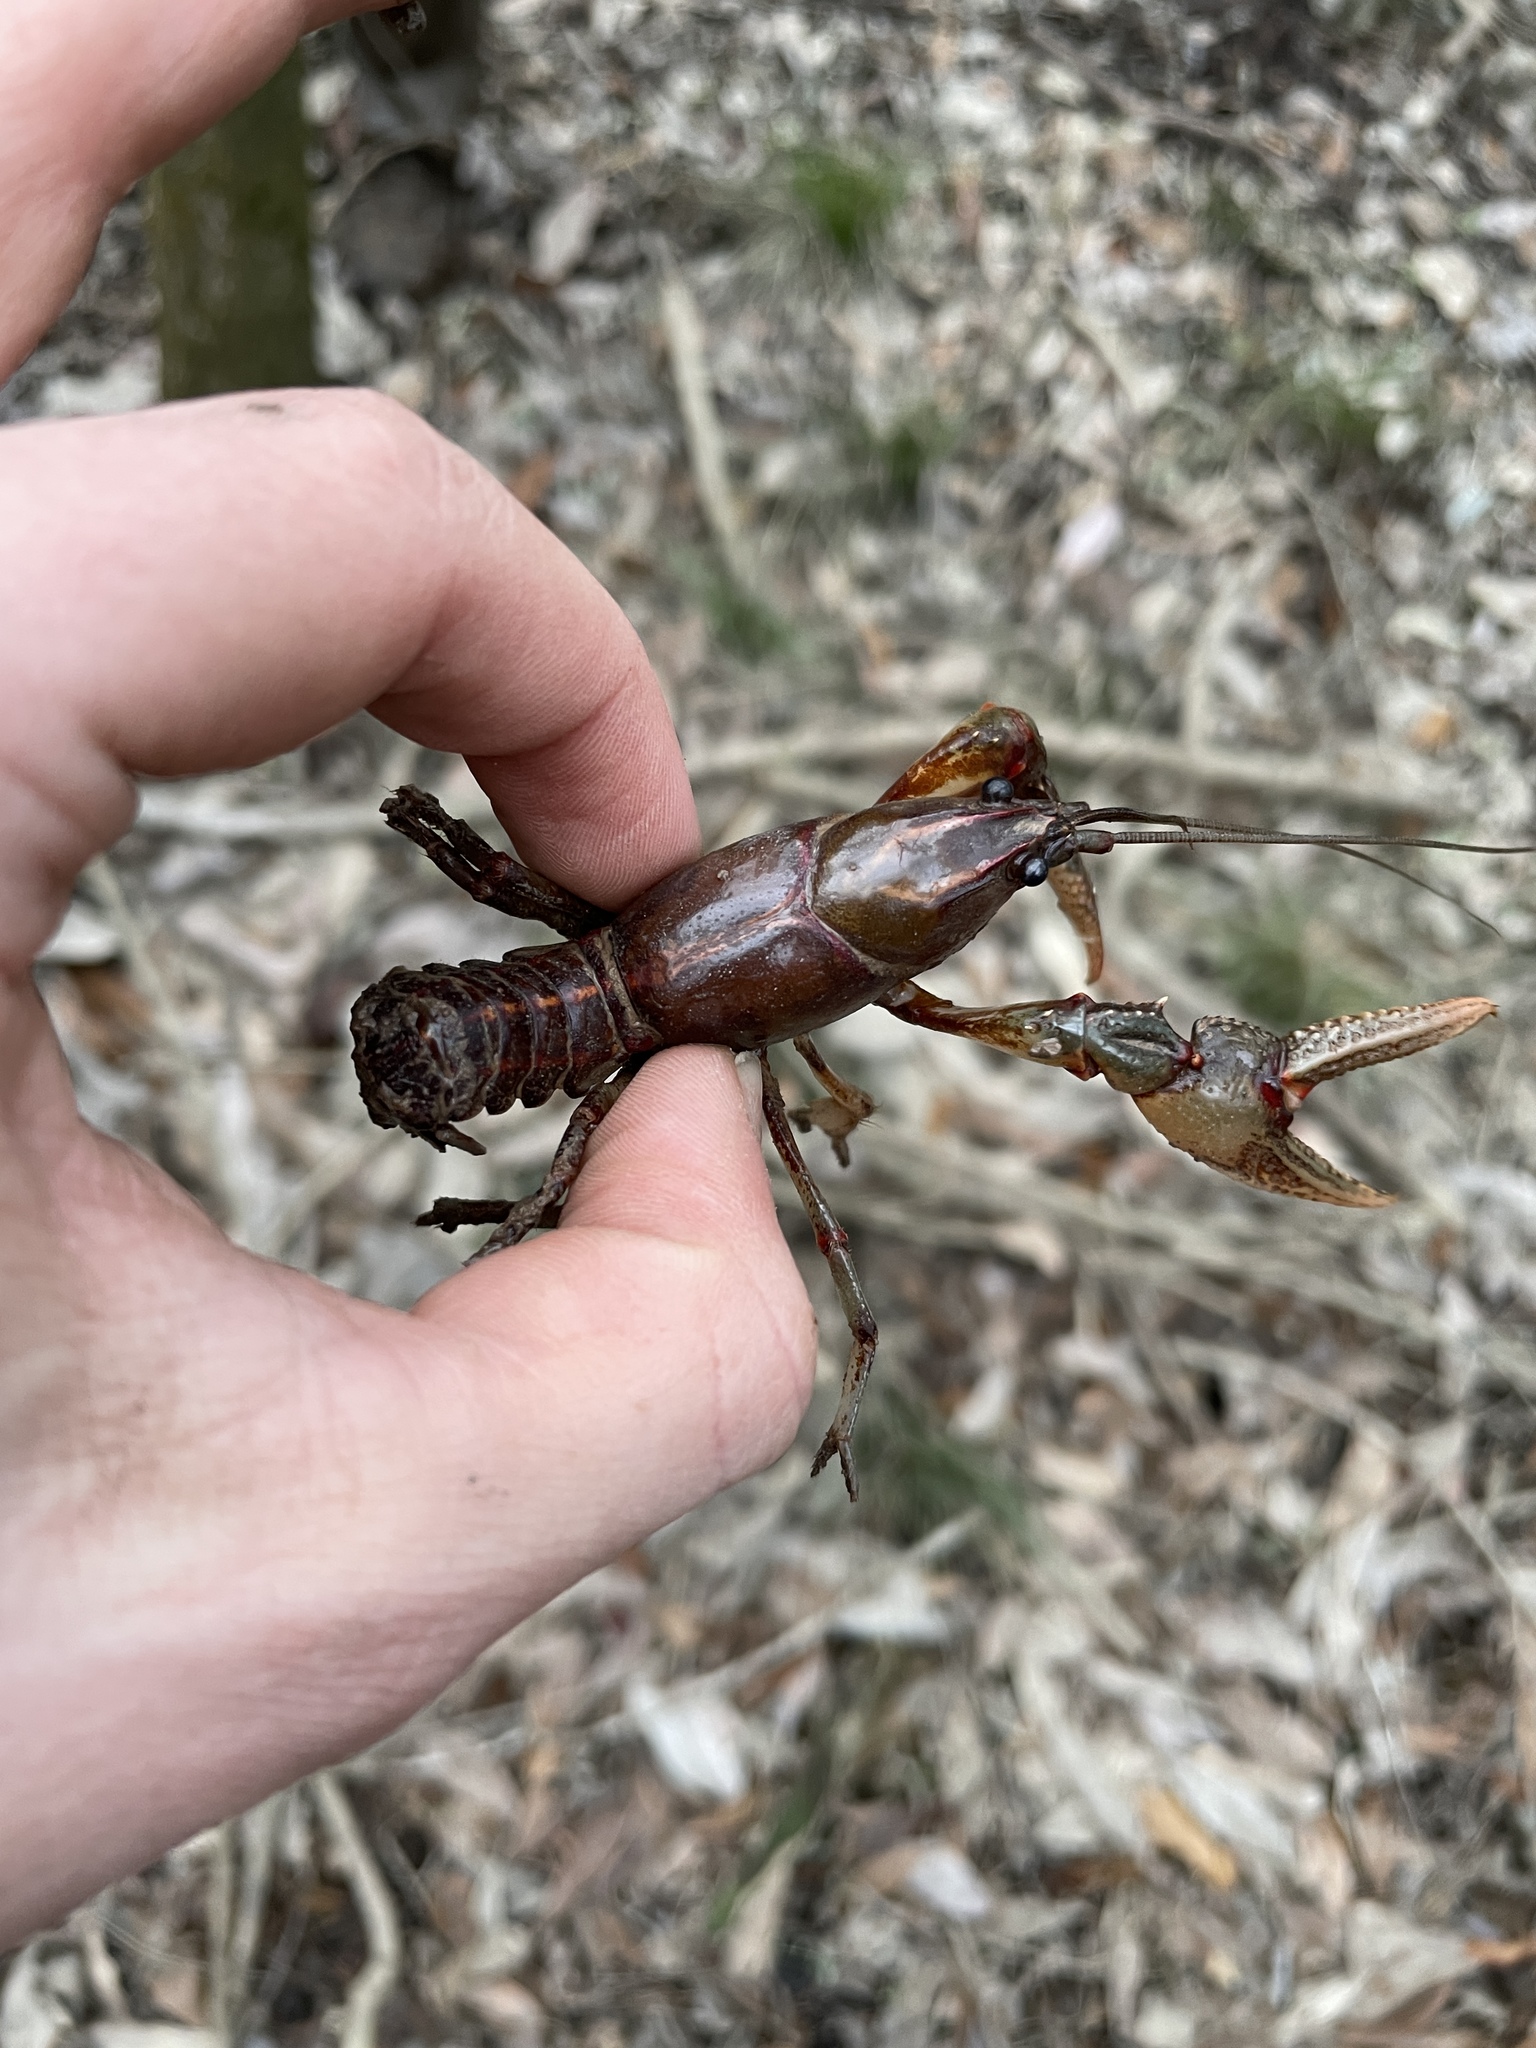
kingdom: Animalia
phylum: Arthropoda
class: Malacostraca
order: Decapoda
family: Cambaridae
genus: Lacunicambarus
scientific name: Lacunicambarus ludovicianus
